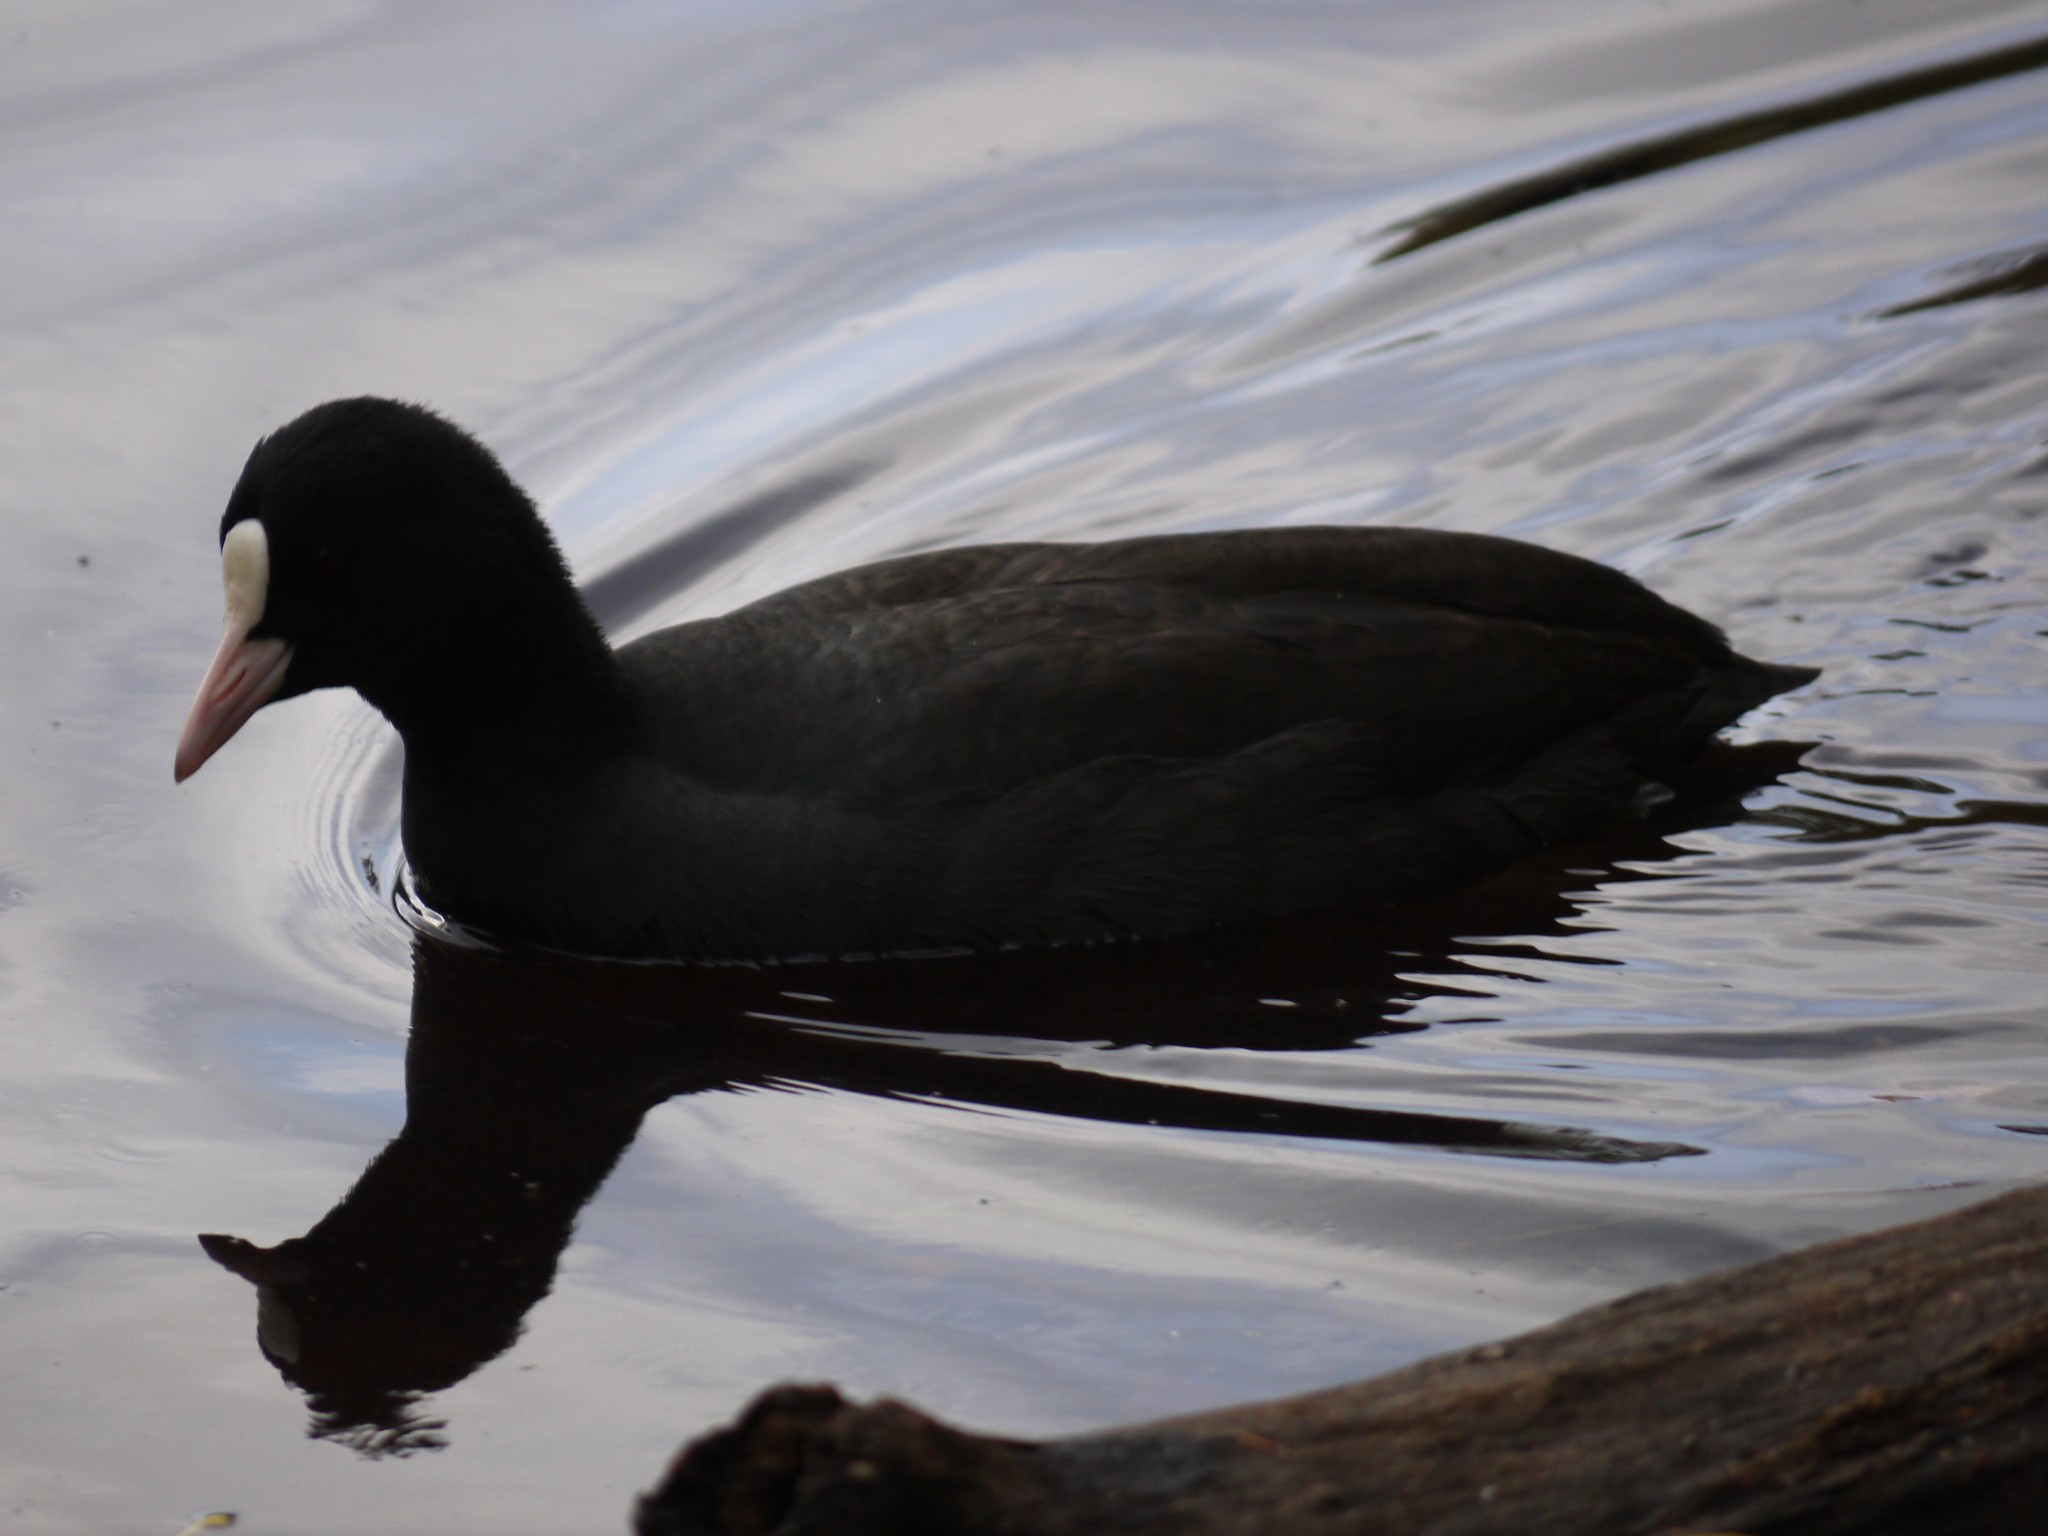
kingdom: Animalia
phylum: Chordata
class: Aves
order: Gruiformes
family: Rallidae
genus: Fulica
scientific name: Fulica atra
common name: Eurasian coot
